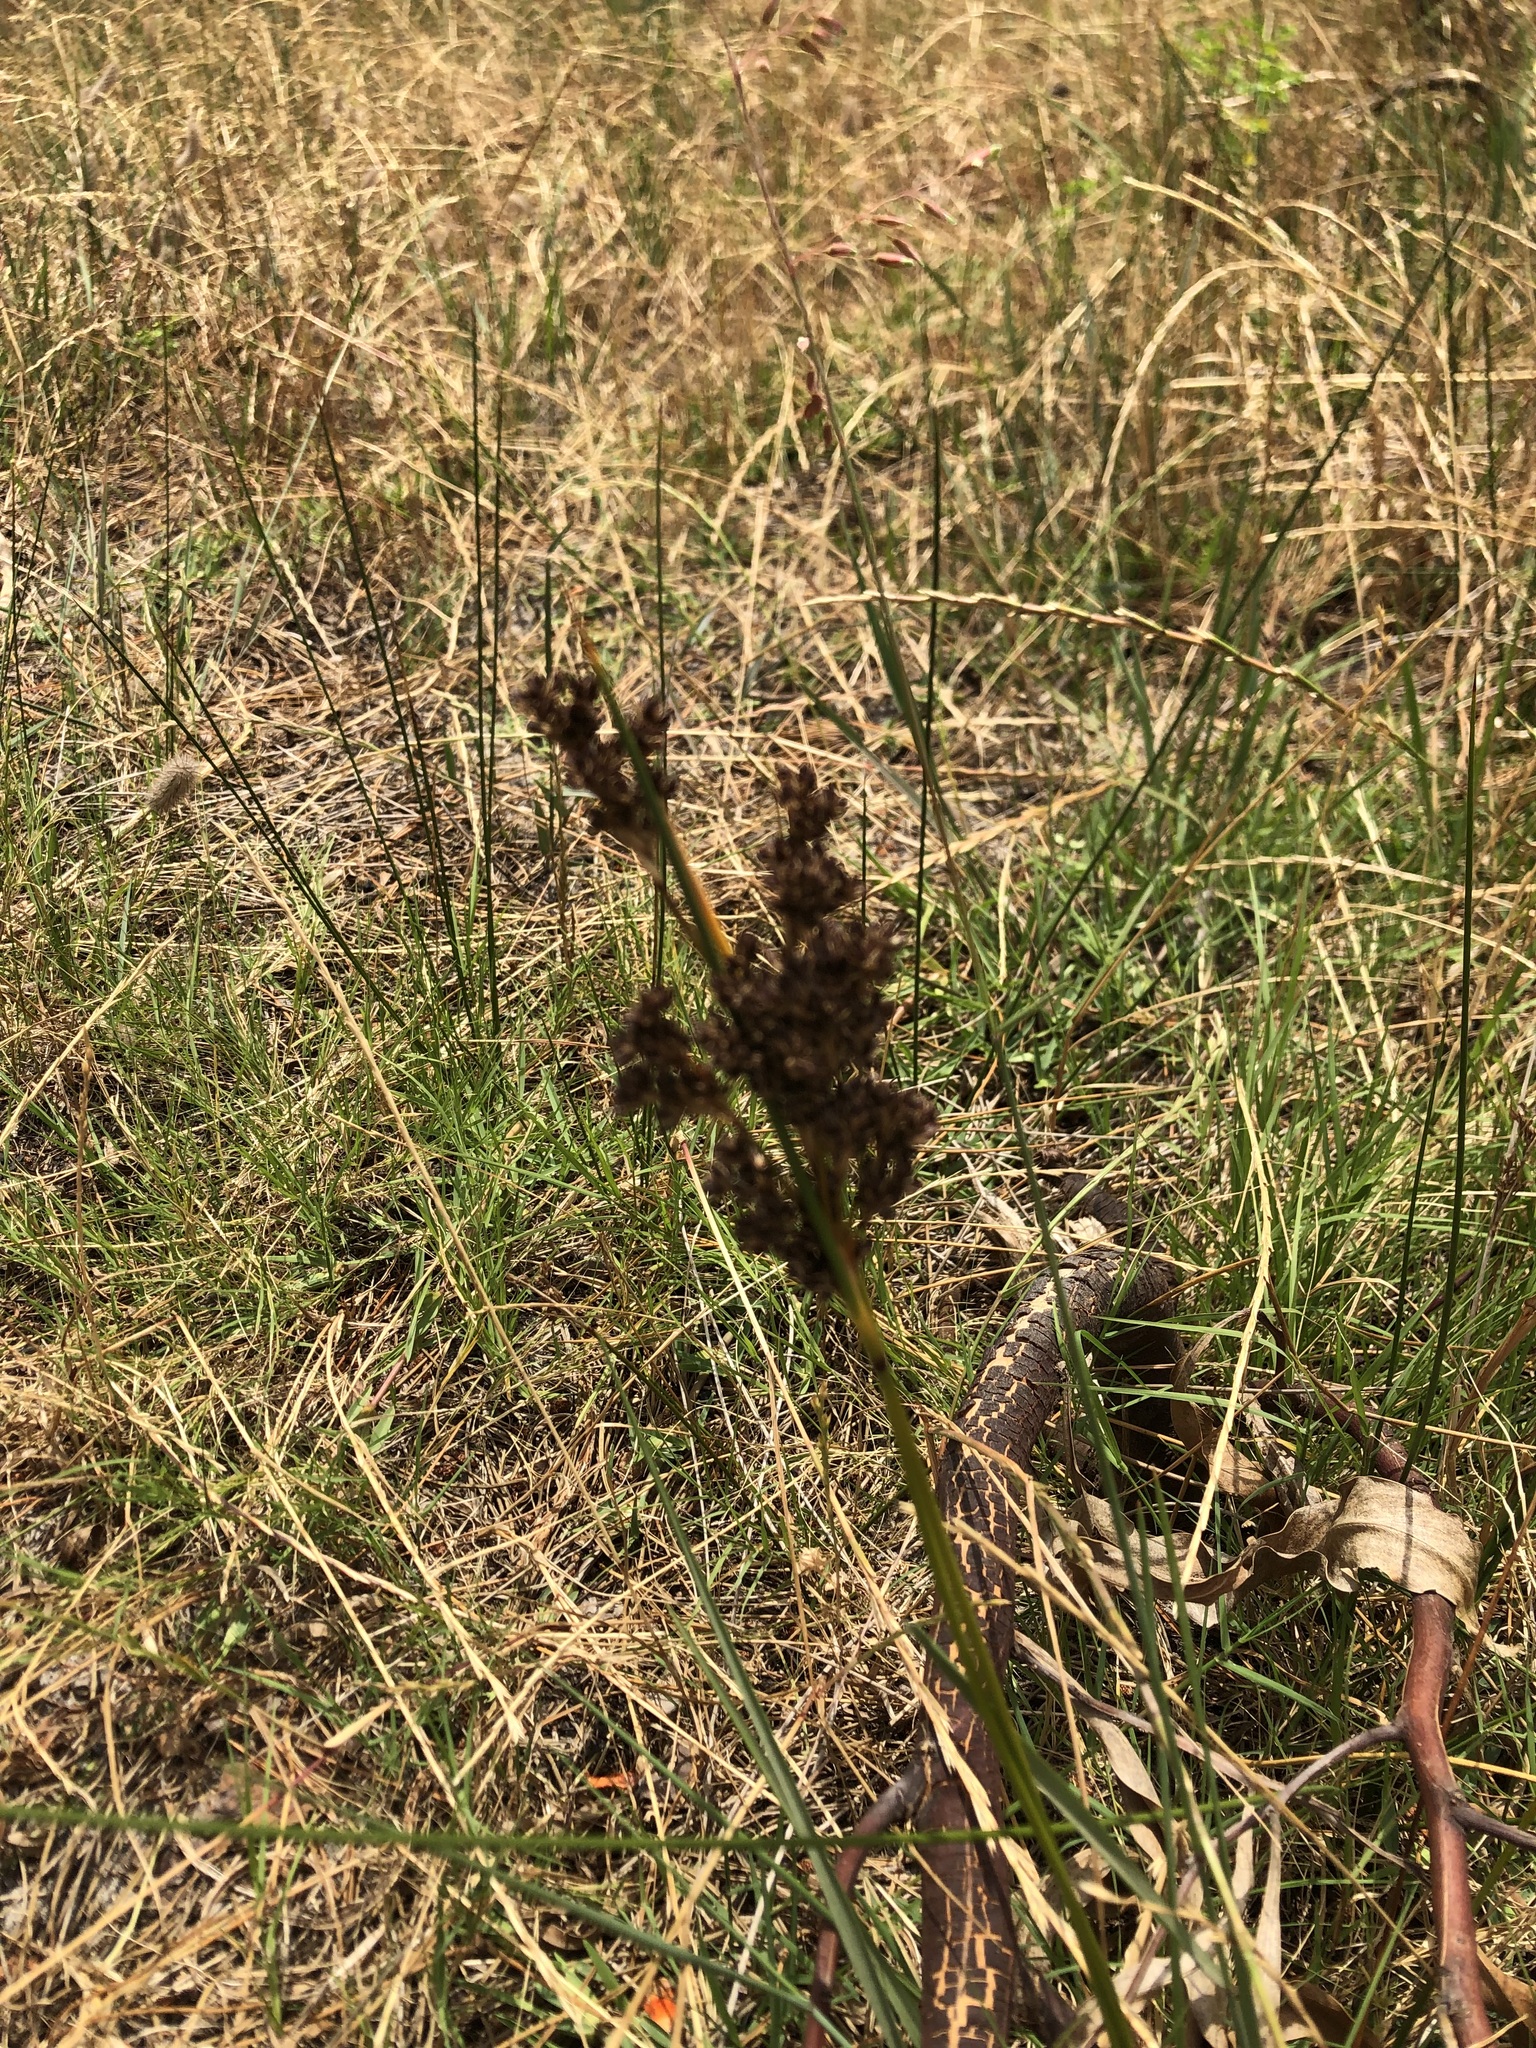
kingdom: Plantae
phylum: Tracheophyta
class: Liliopsida
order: Poales
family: Juncaceae
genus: Juncus
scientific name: Juncus kraussii
